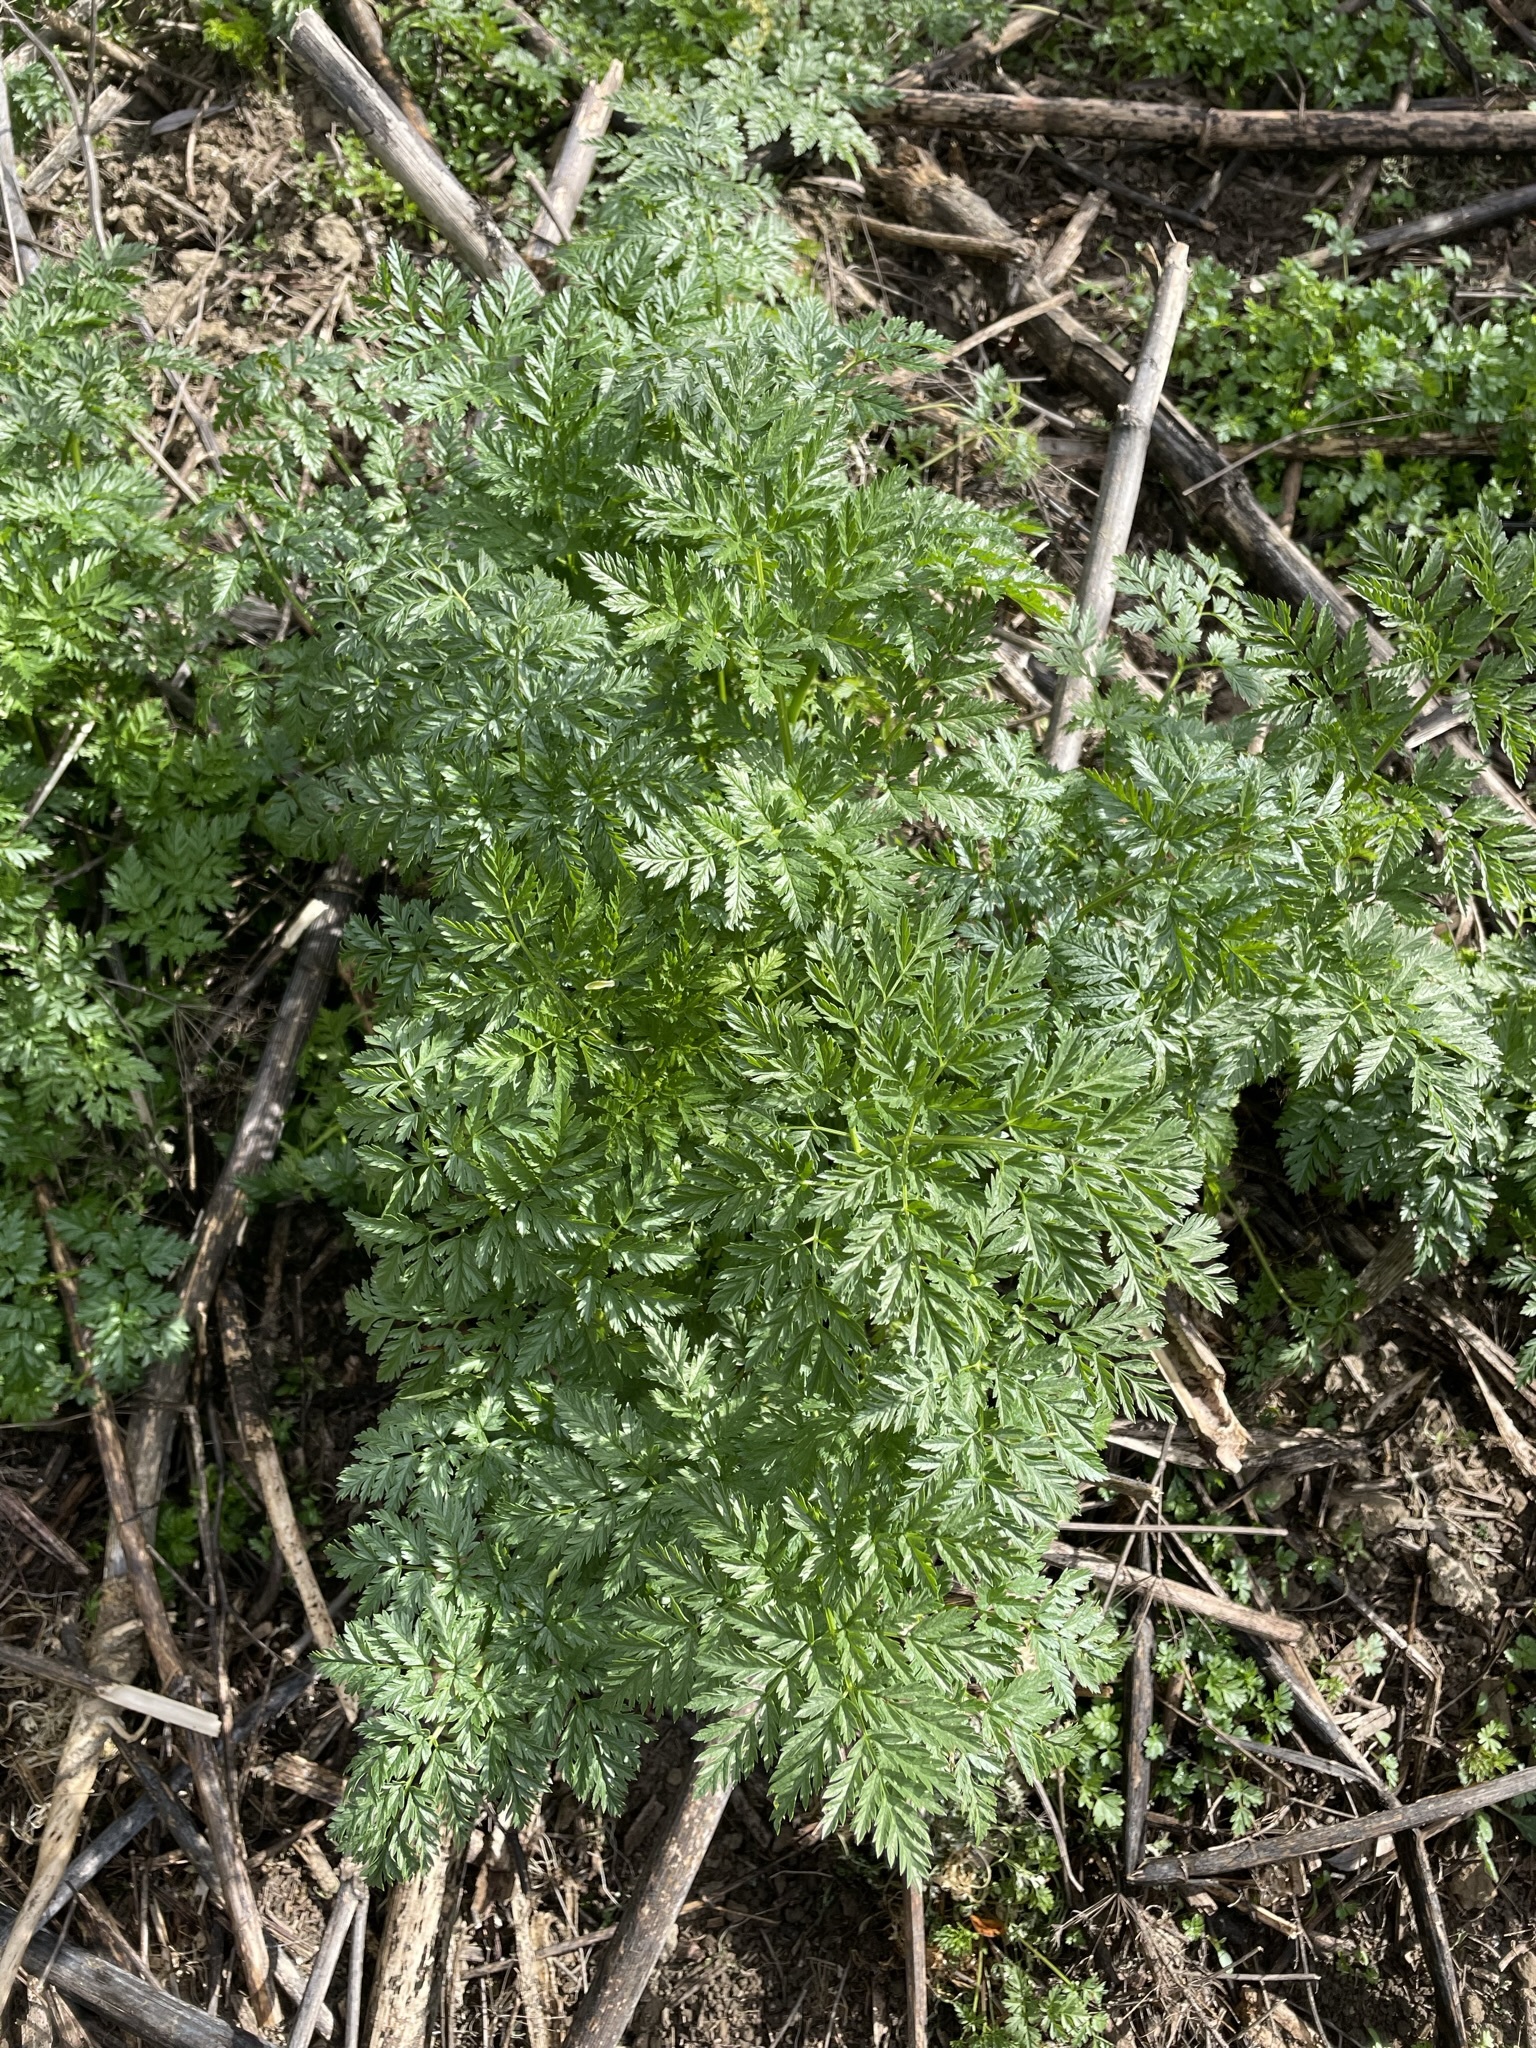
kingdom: Plantae
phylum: Tracheophyta
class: Magnoliopsida
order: Apiales
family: Apiaceae
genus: Conium
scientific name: Conium maculatum
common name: Hemlock
